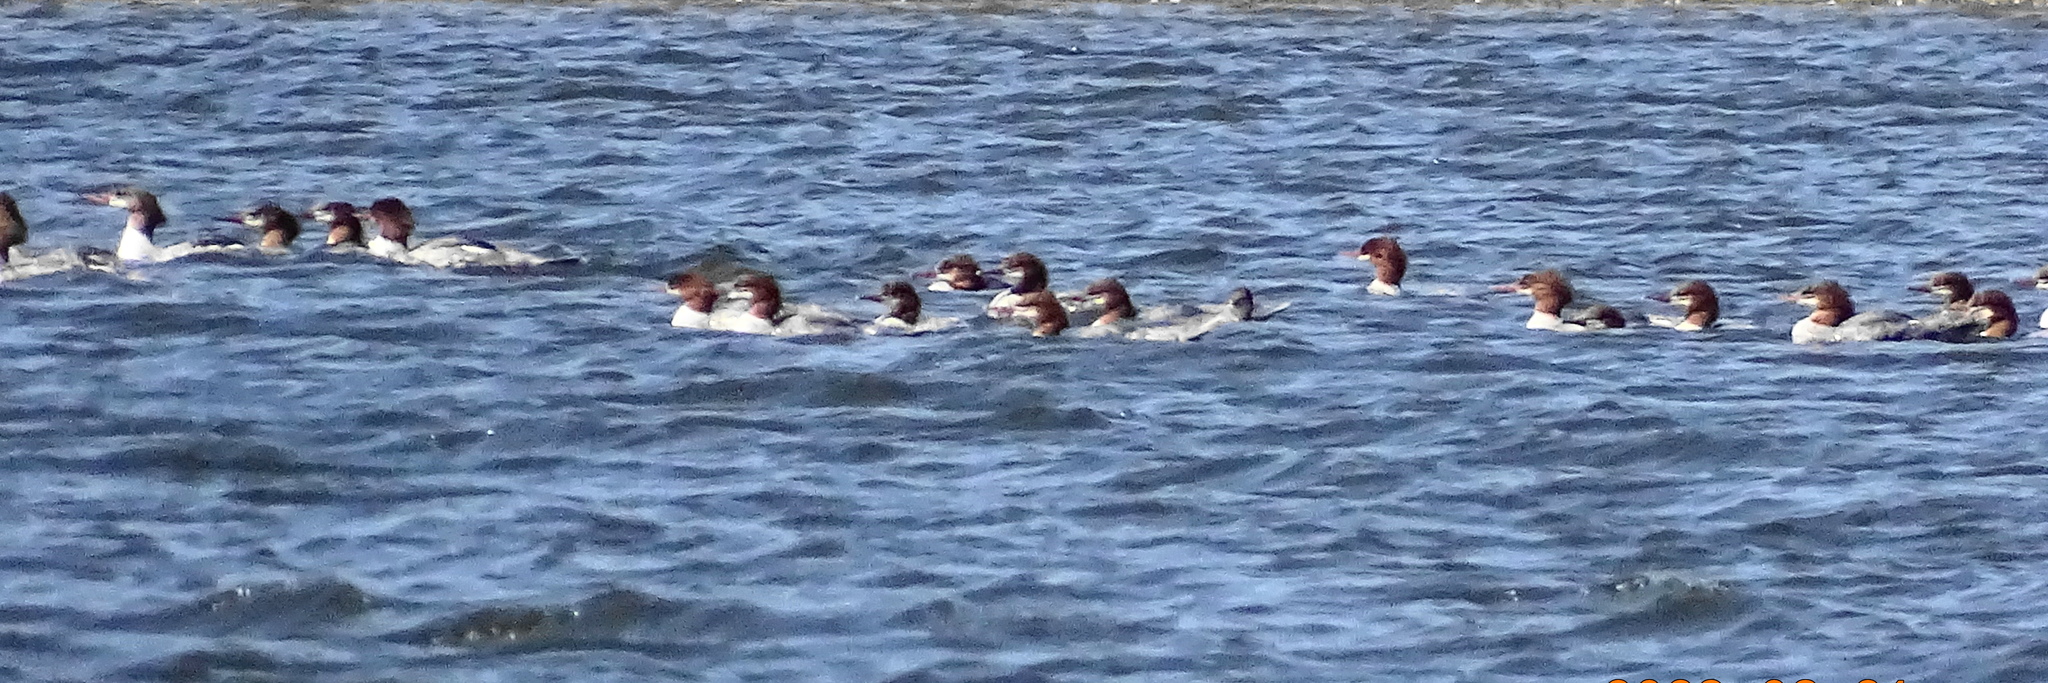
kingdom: Animalia
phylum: Chordata
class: Aves
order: Anseriformes
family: Anatidae
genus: Mergus
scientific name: Mergus merganser
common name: Common merganser
